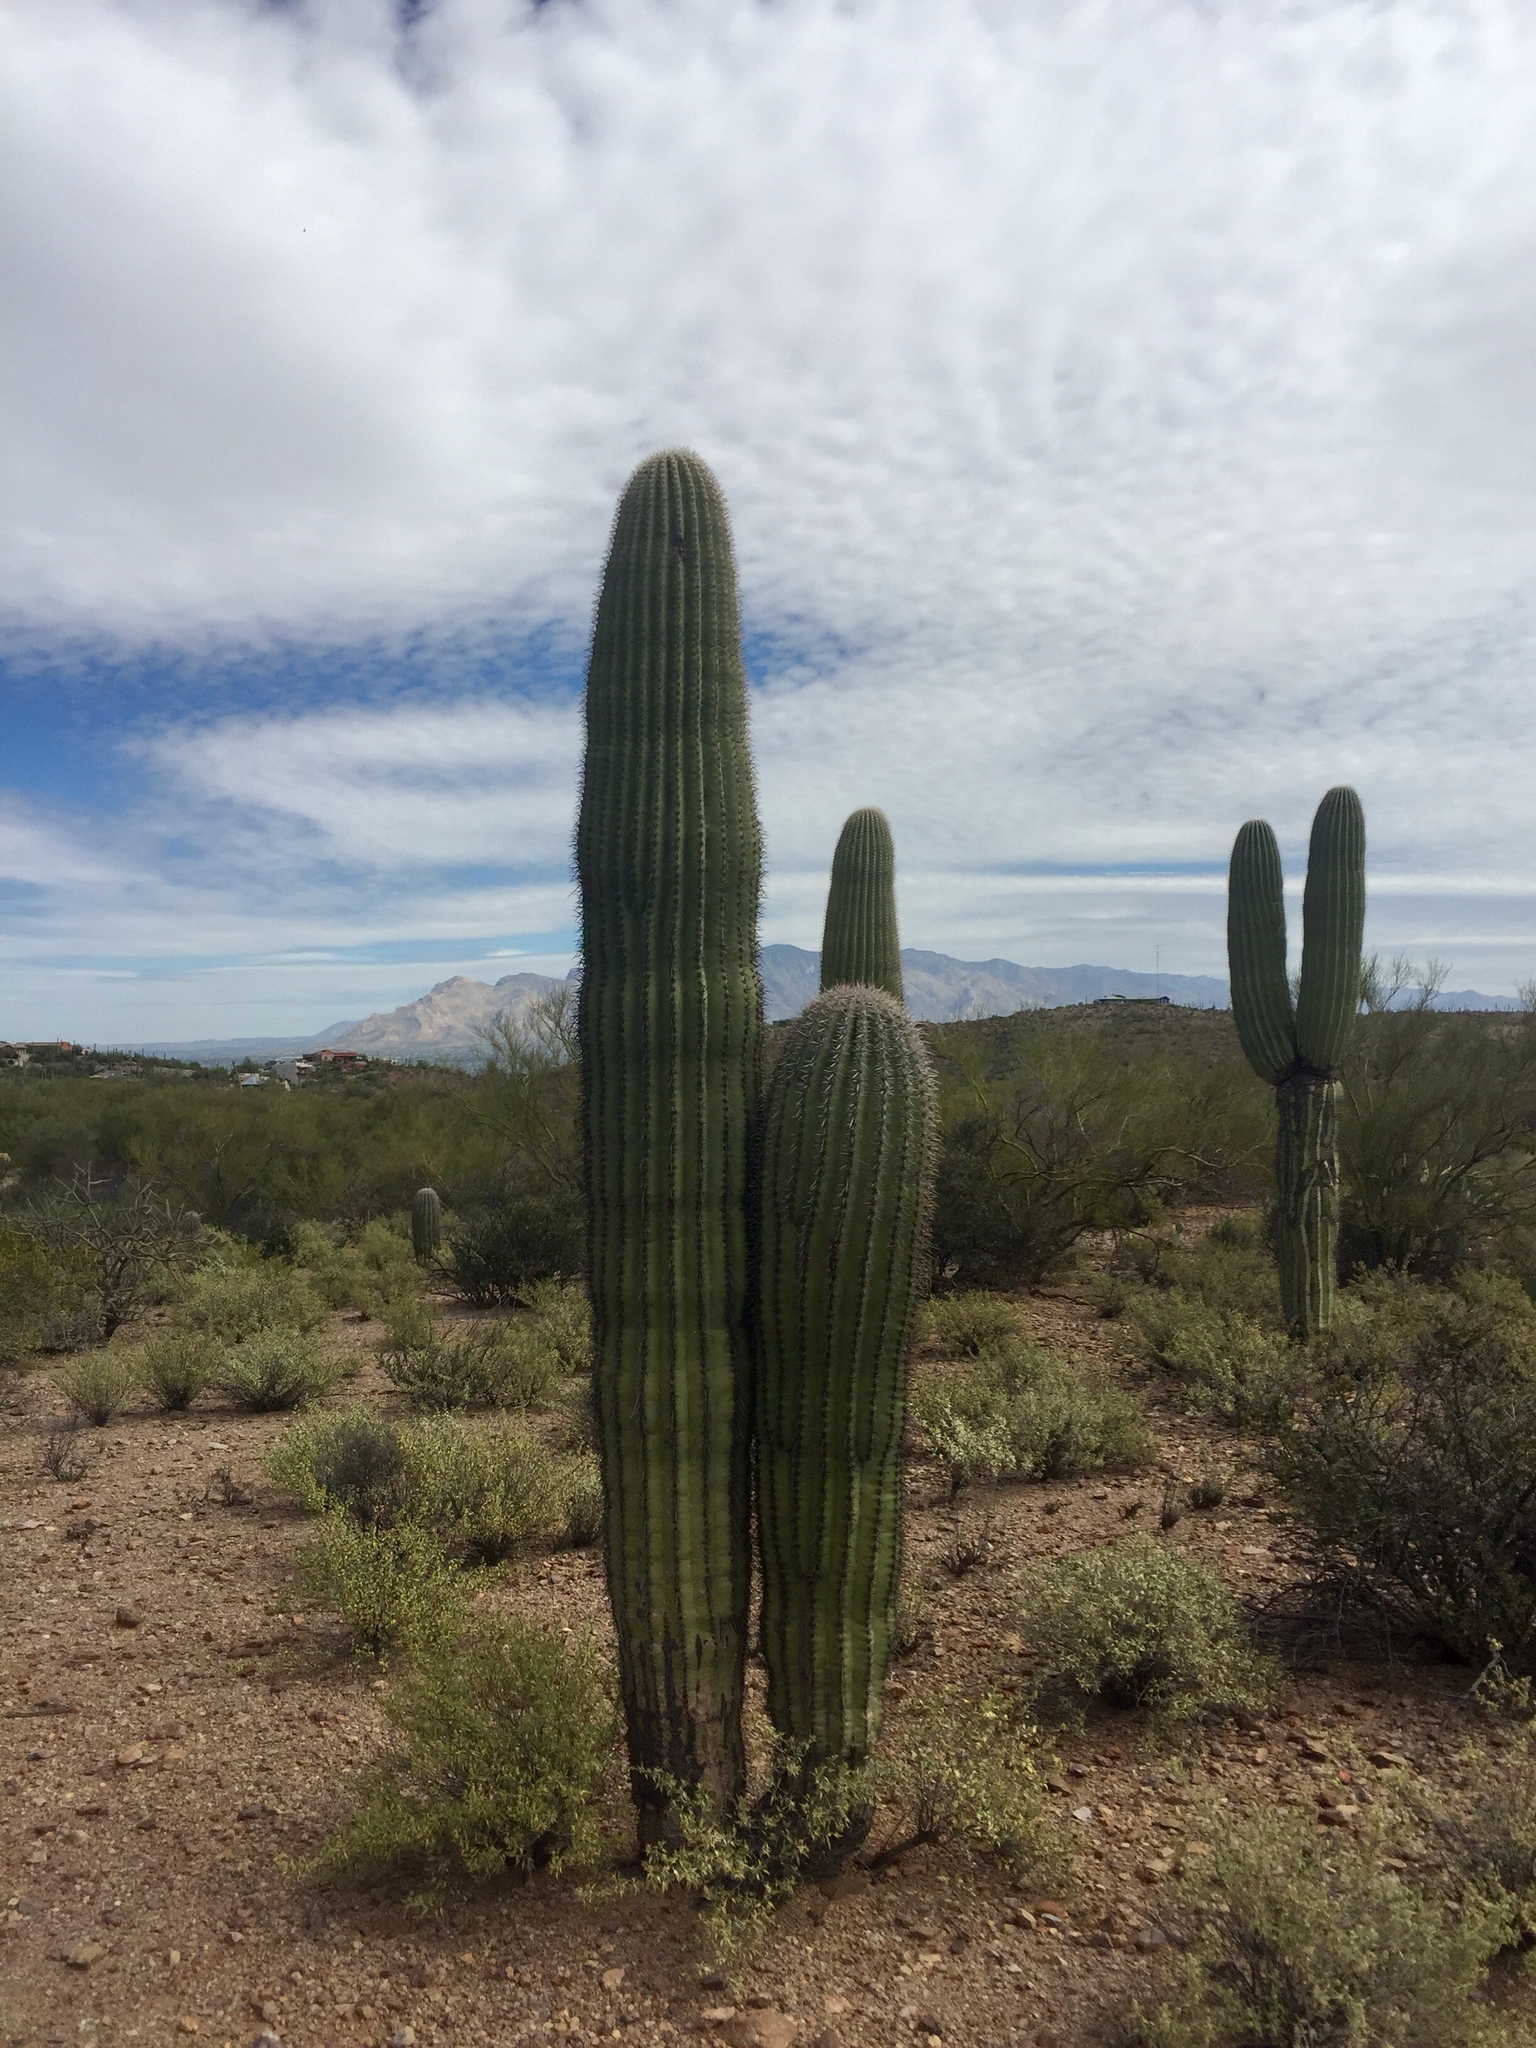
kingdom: Plantae
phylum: Tracheophyta
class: Magnoliopsida
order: Caryophyllales
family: Cactaceae
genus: Carnegiea
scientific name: Carnegiea gigantea
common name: Saguaro
